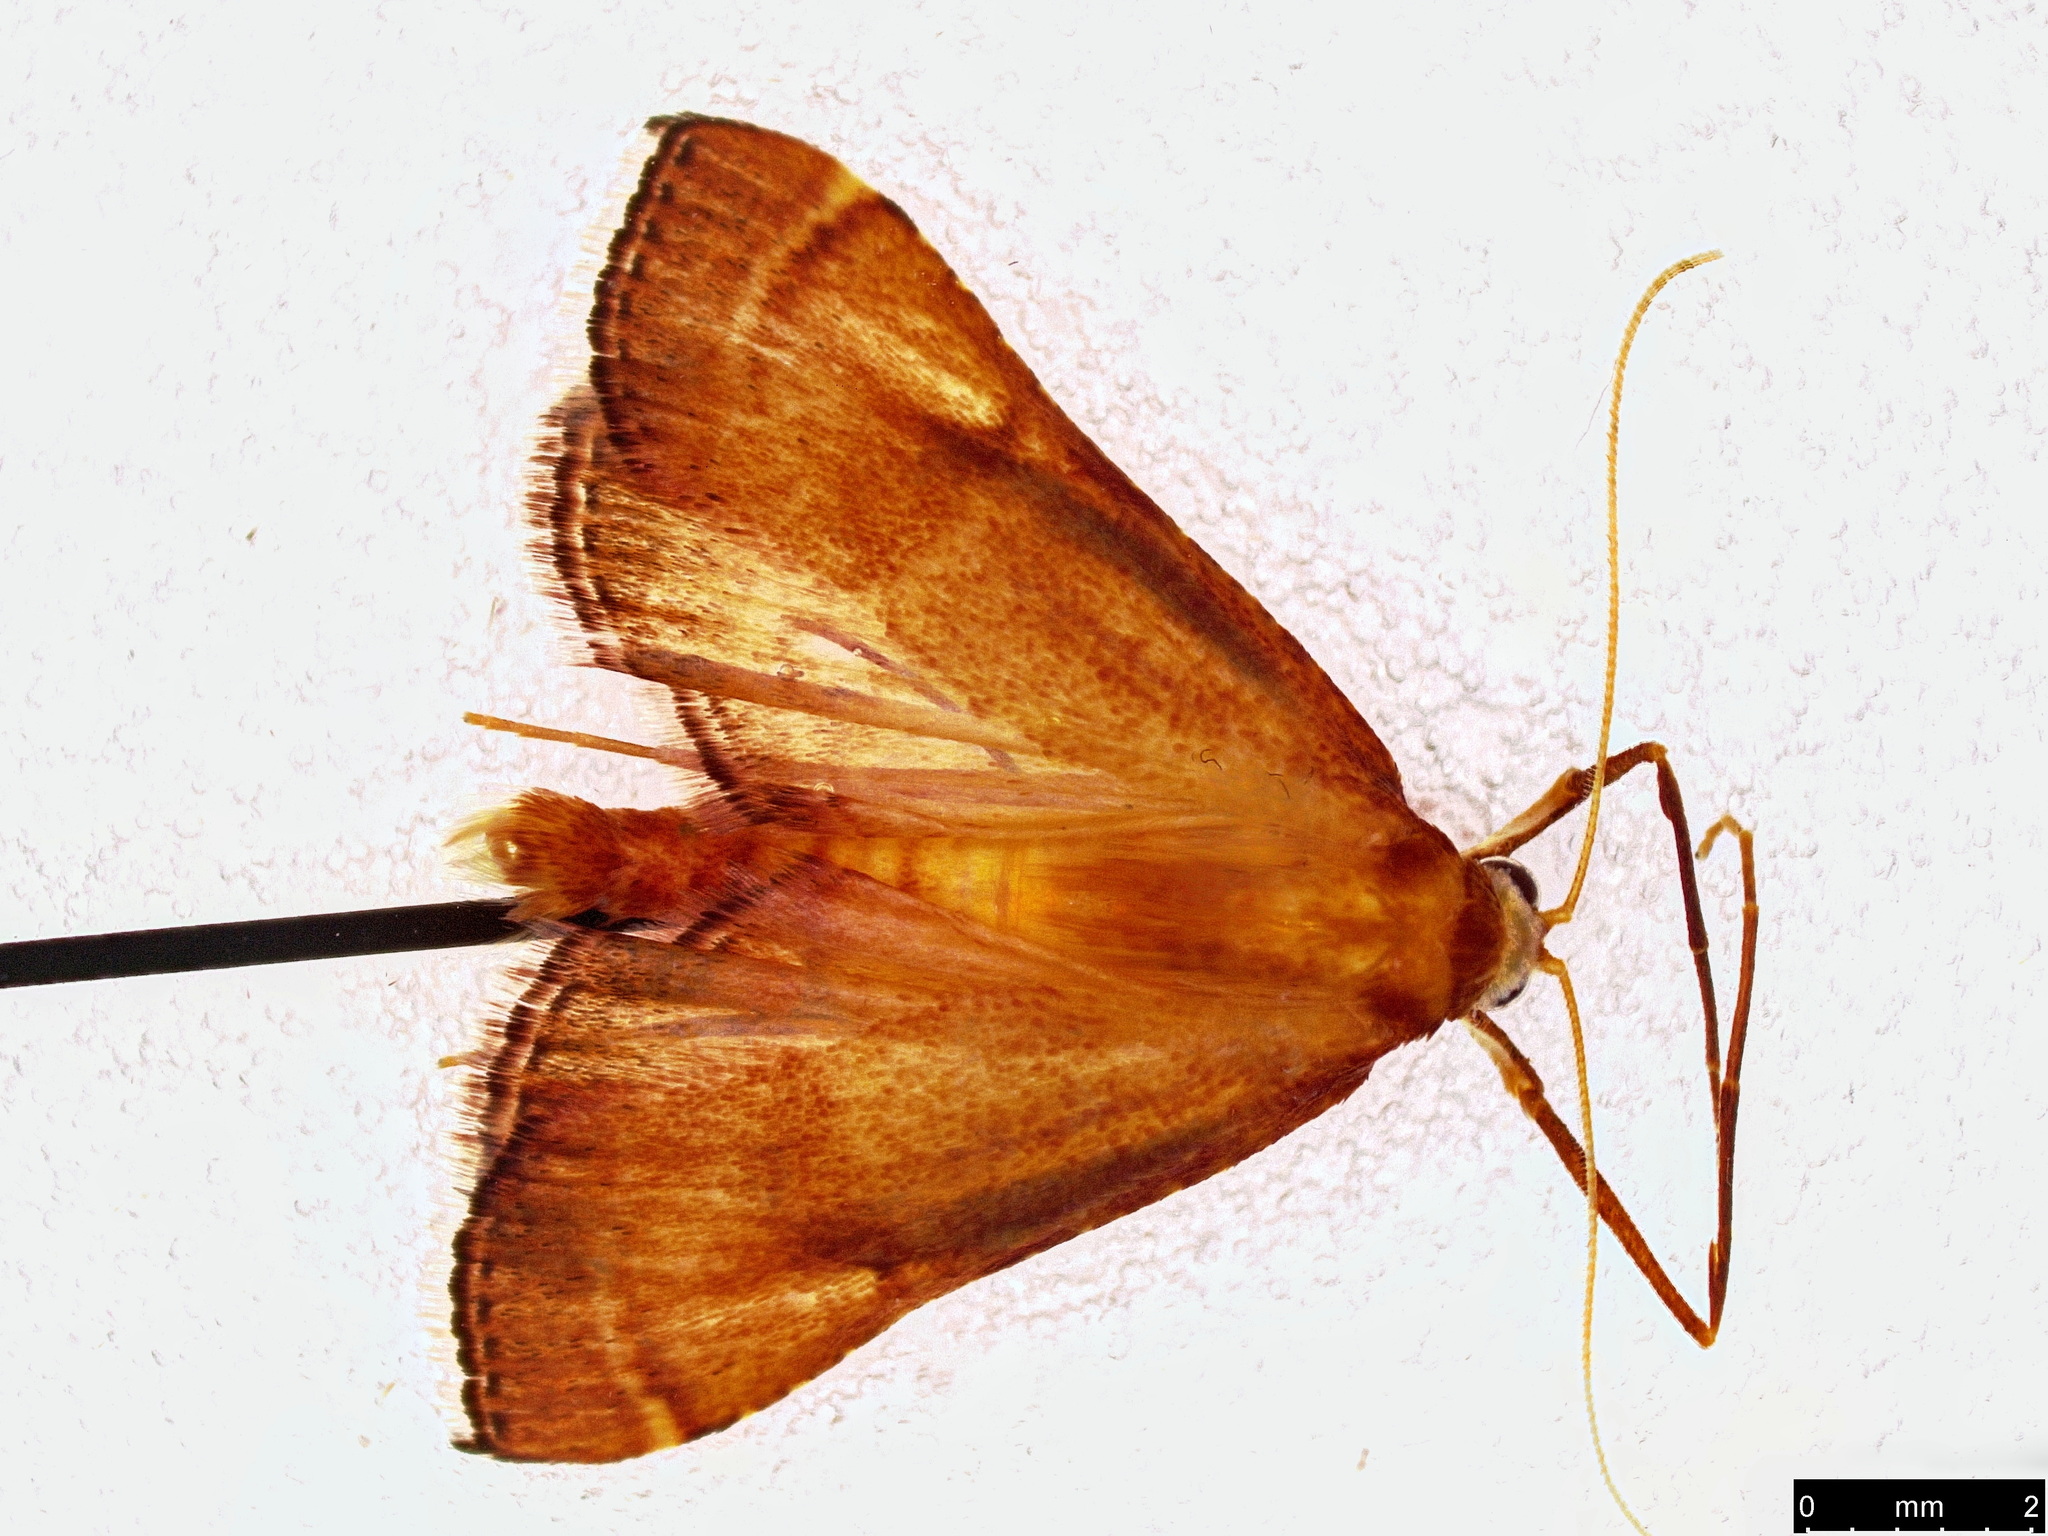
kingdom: Animalia
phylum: Arthropoda
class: Insecta
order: Lepidoptera
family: Pyralidae
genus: Endotricha
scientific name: Endotricha pyrosalis
